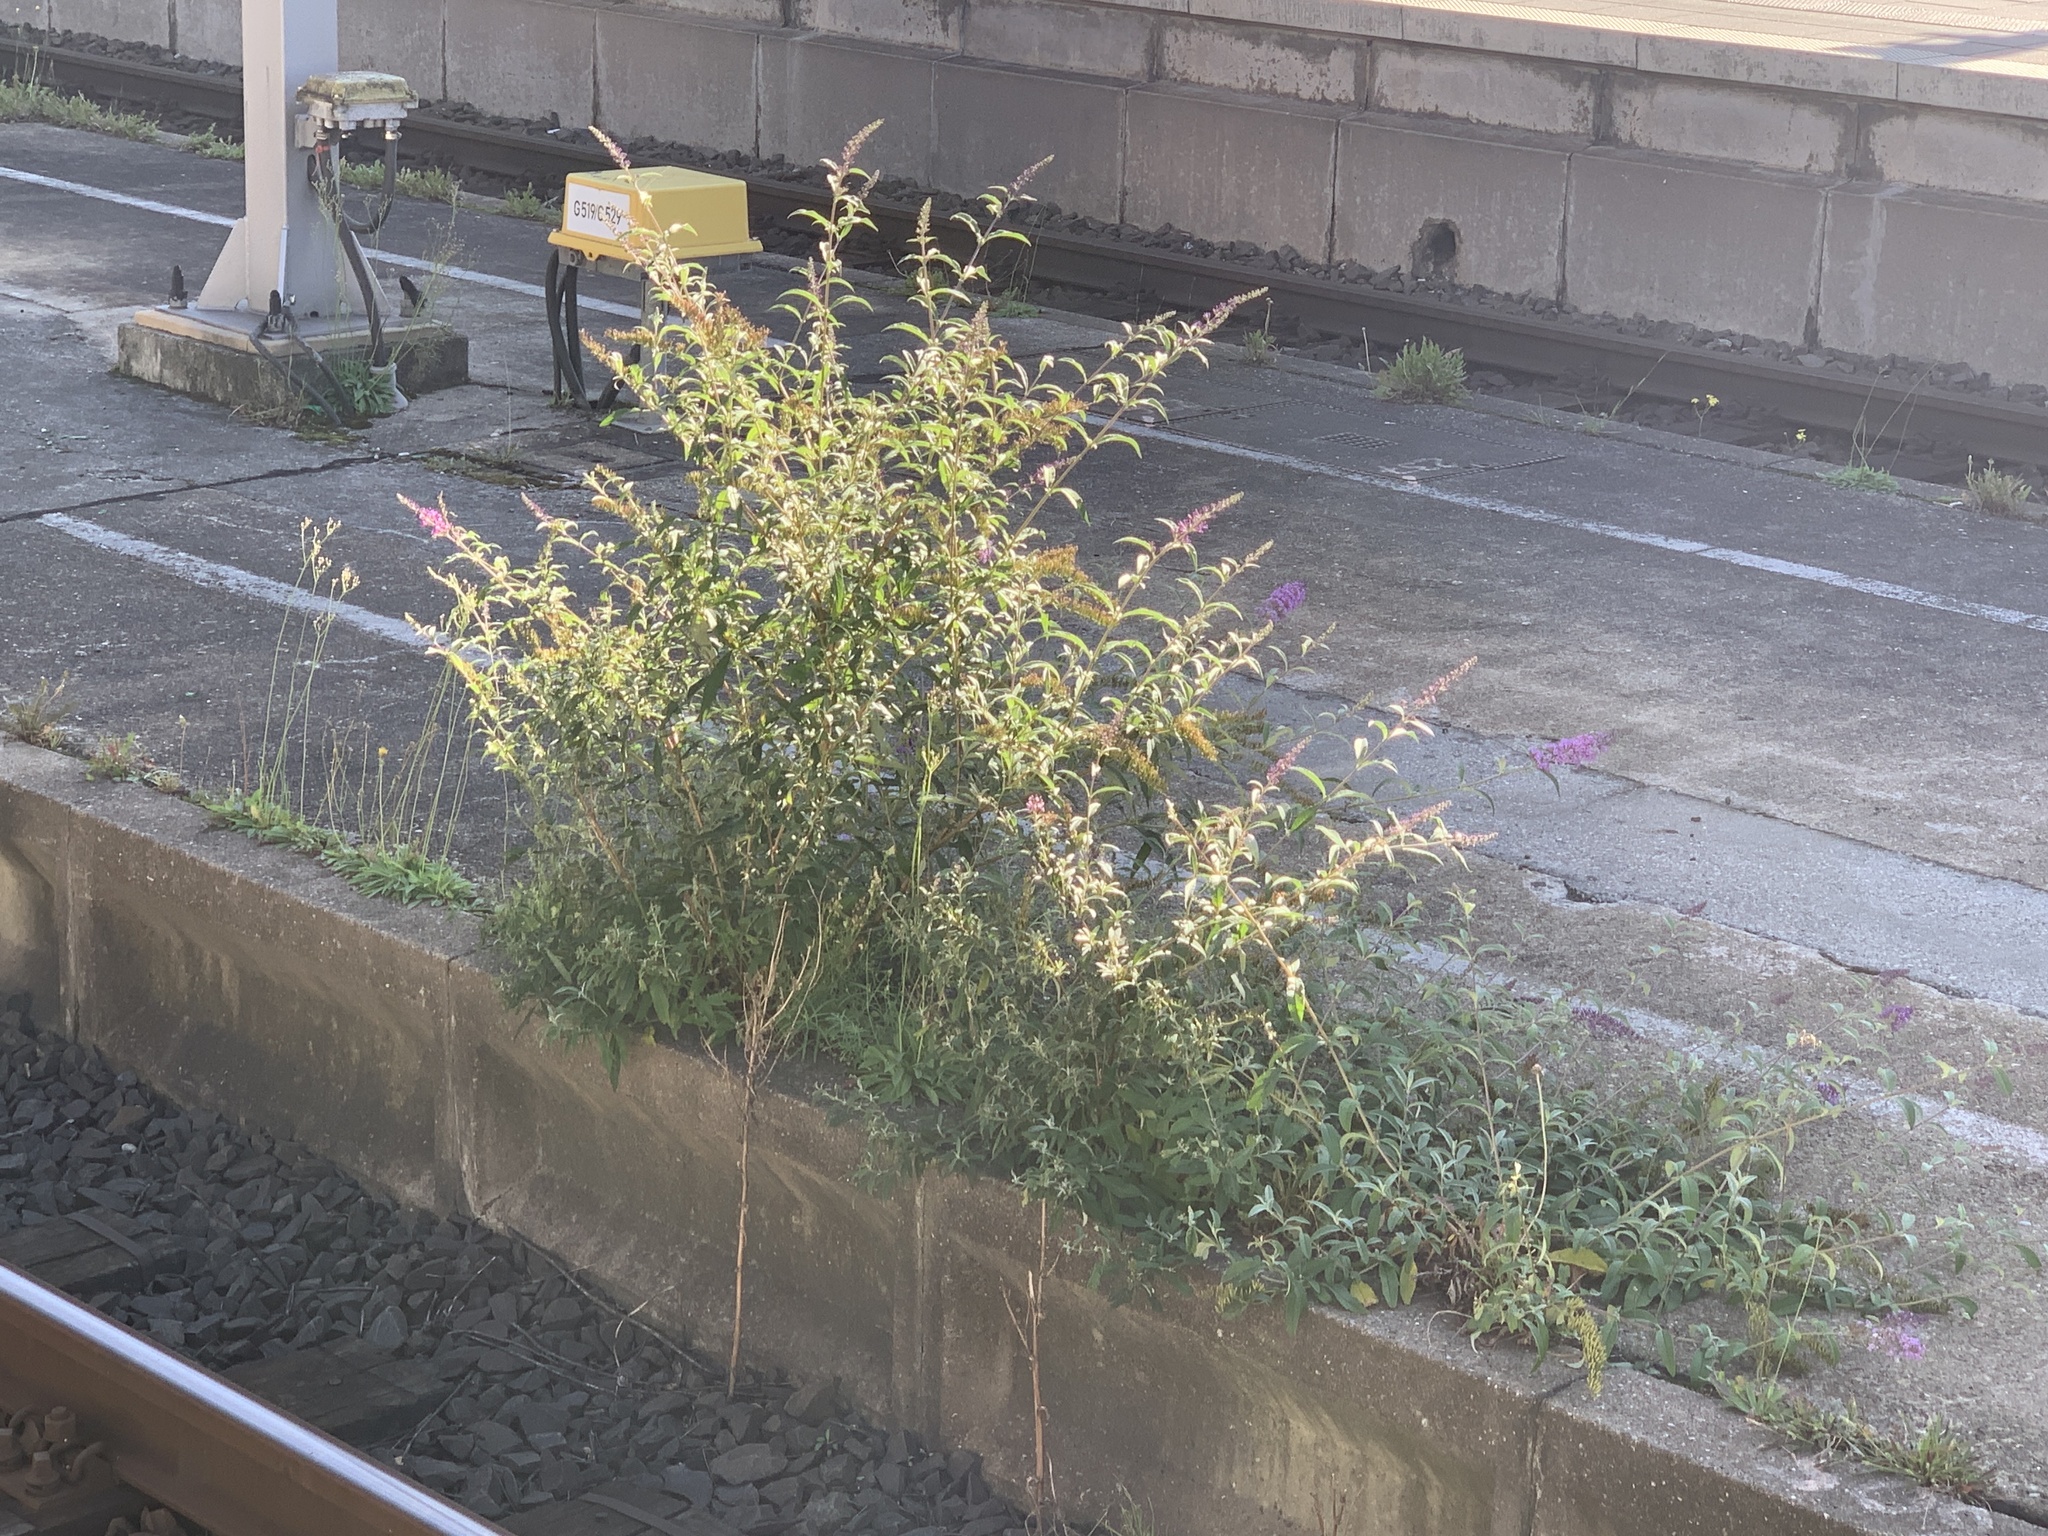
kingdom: Plantae
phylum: Tracheophyta
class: Magnoliopsida
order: Lamiales
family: Scrophulariaceae
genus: Buddleja
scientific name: Buddleja davidii
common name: Butterfly-bush
